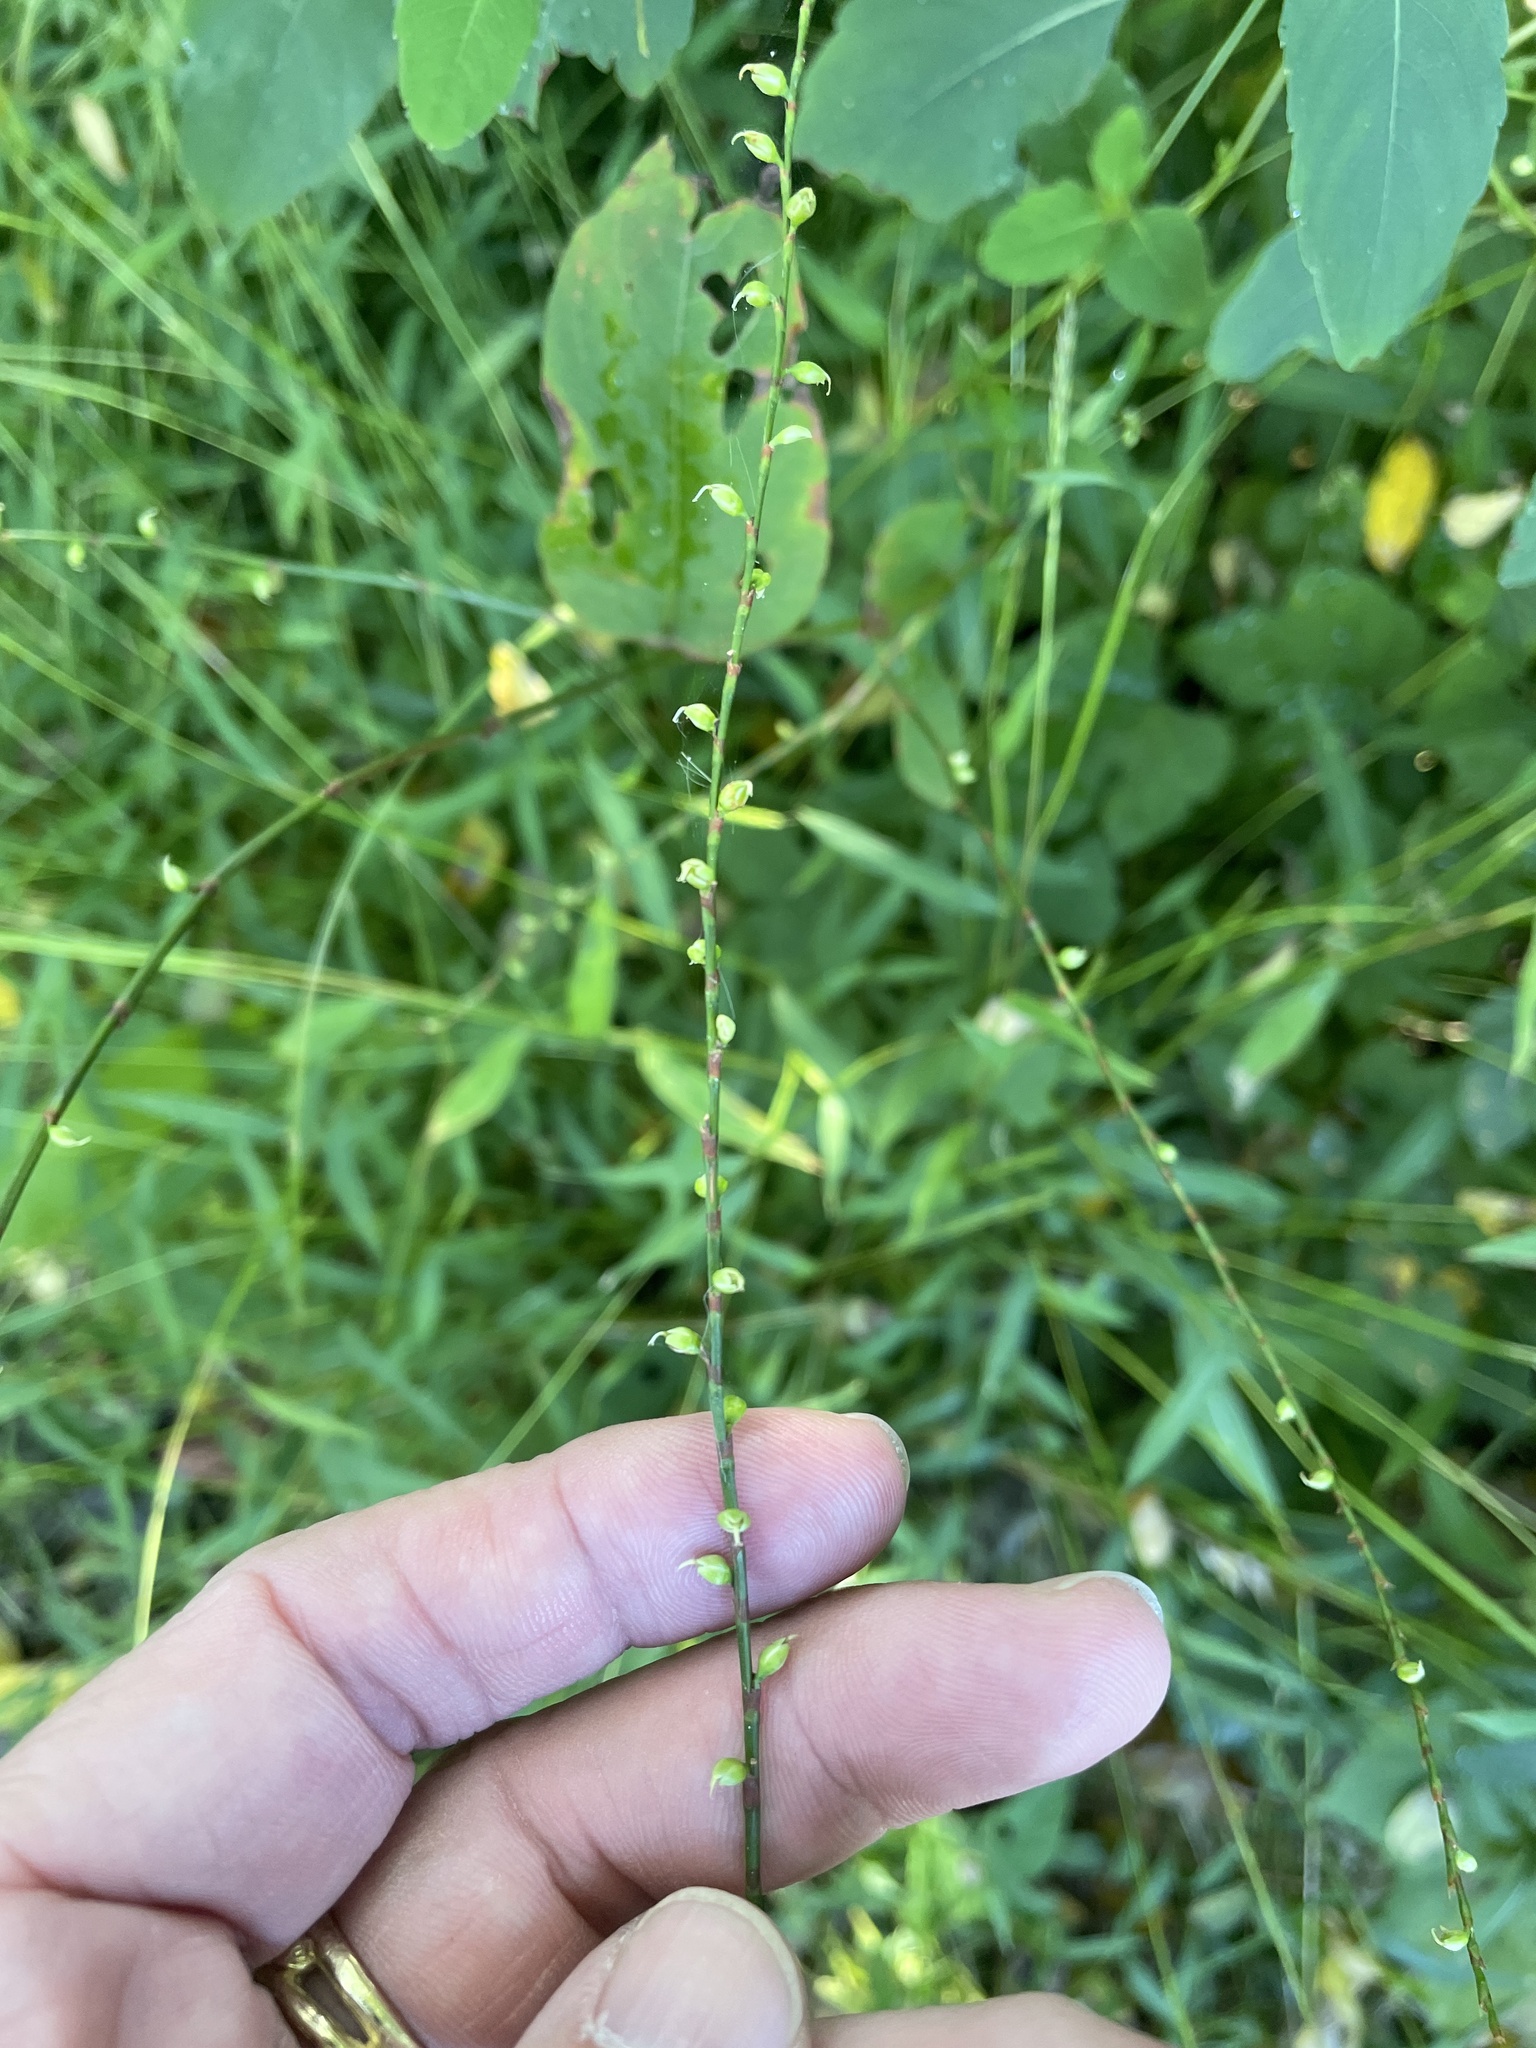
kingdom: Plantae
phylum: Tracheophyta
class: Magnoliopsida
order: Caryophyllales
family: Polygonaceae
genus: Persicaria
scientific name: Persicaria virginiana
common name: Jumpseed
